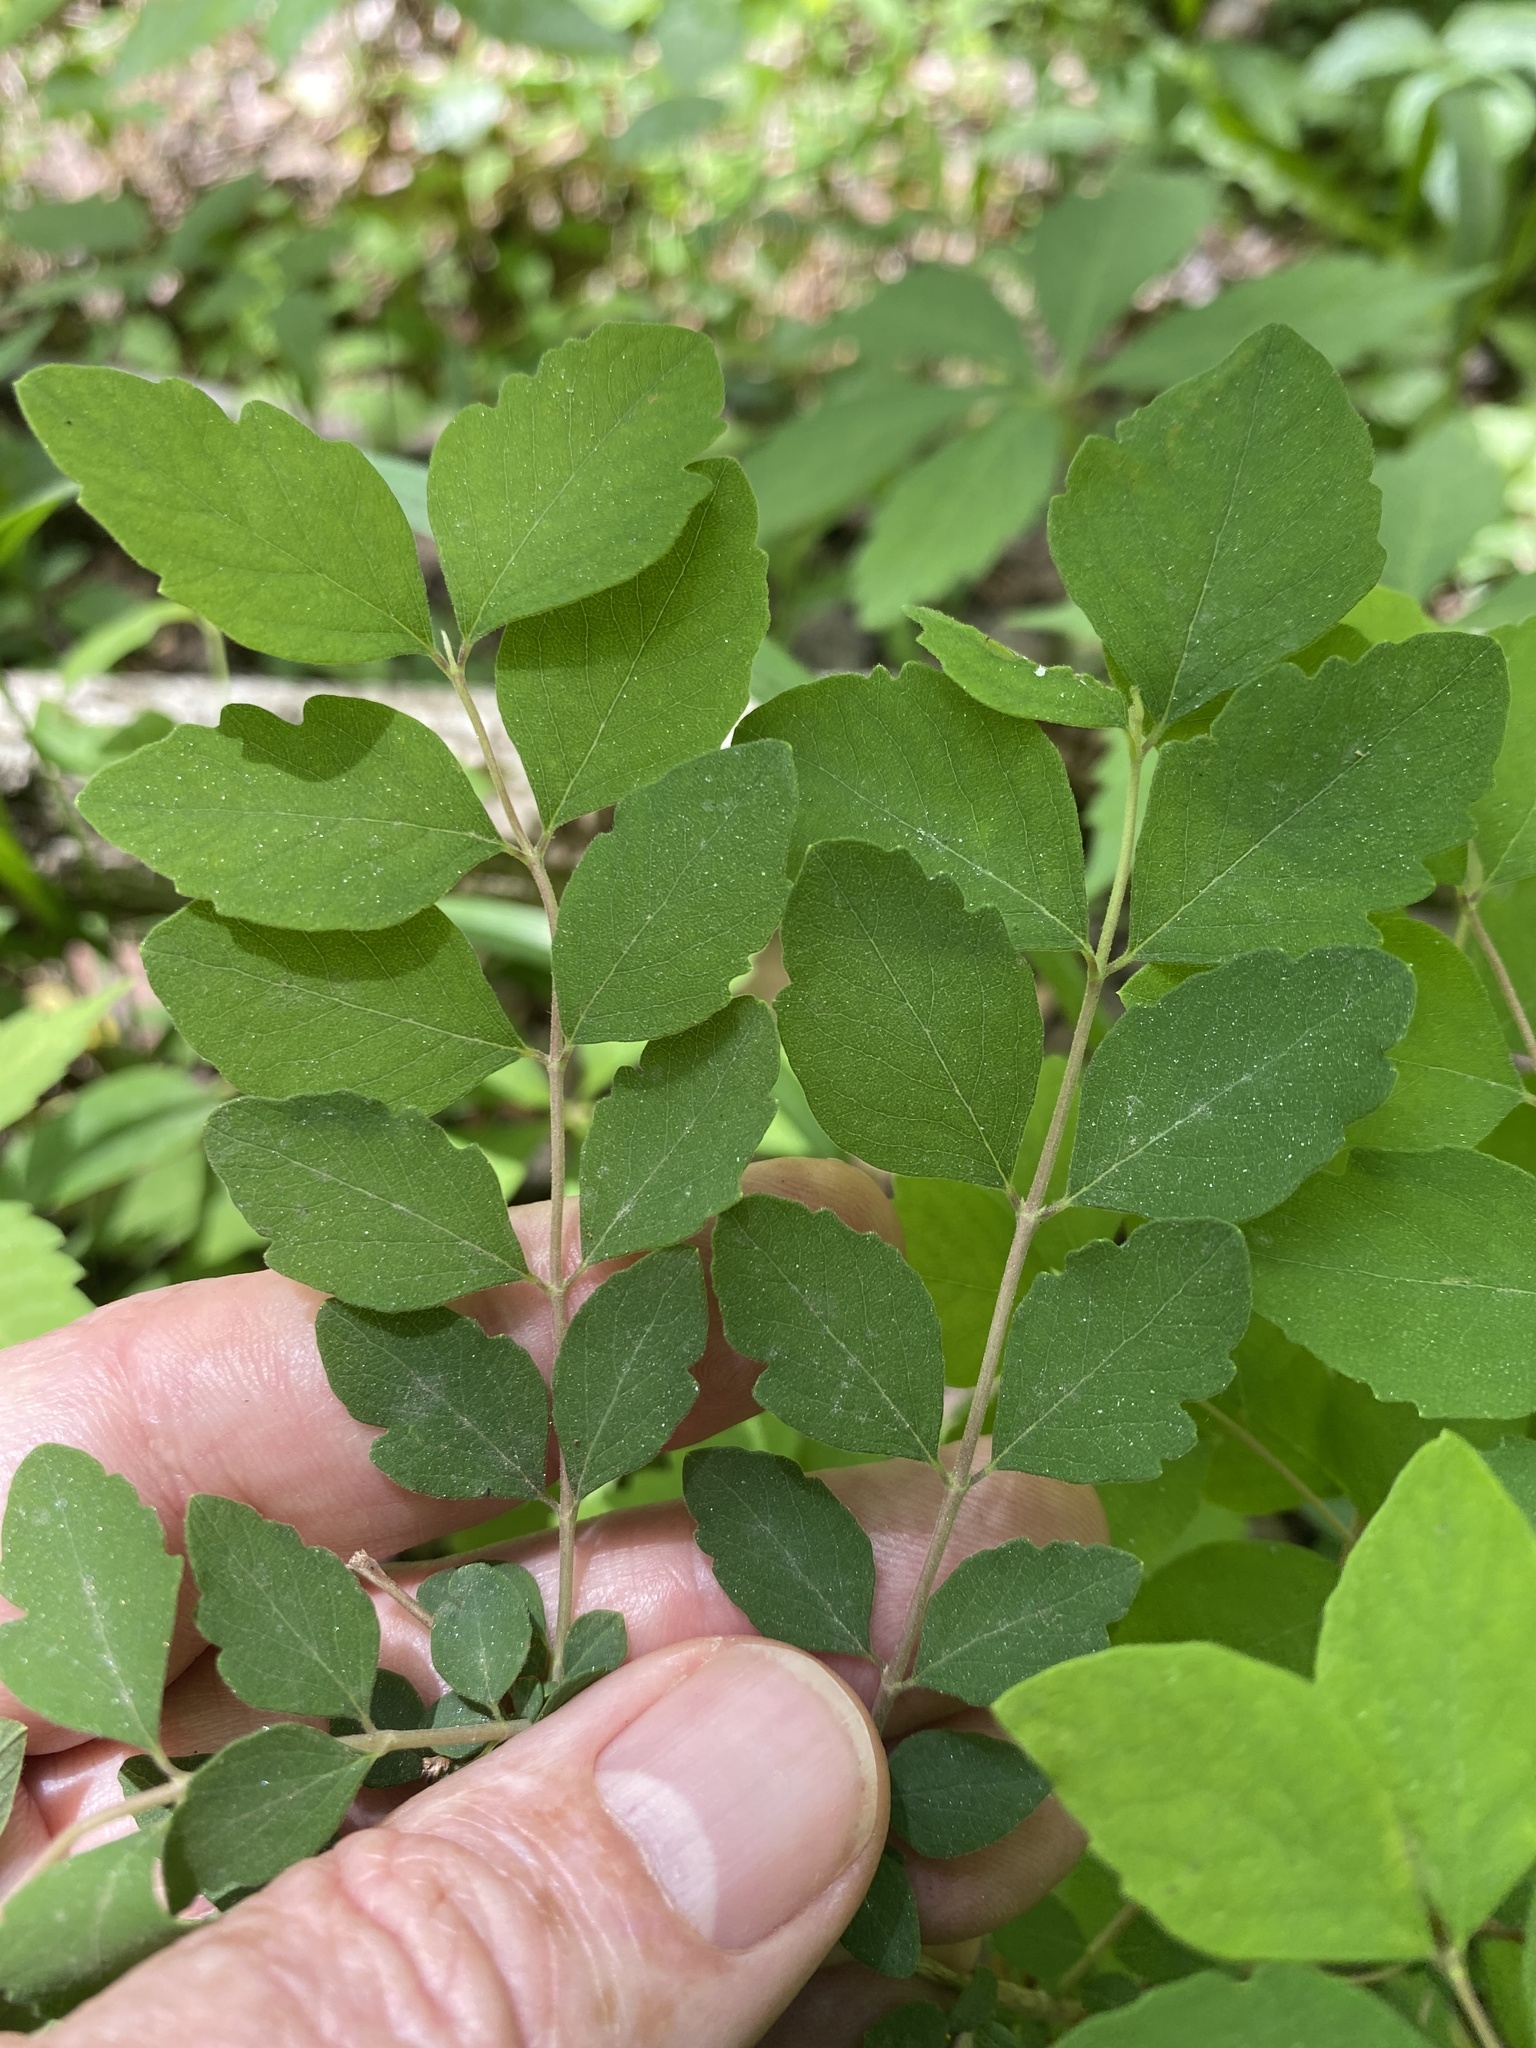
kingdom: Plantae
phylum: Tracheophyta
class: Magnoliopsida
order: Dipsacales
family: Caprifoliaceae
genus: Symphoricarpos
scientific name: Symphoricarpos orbiculatus
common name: Coralberry
